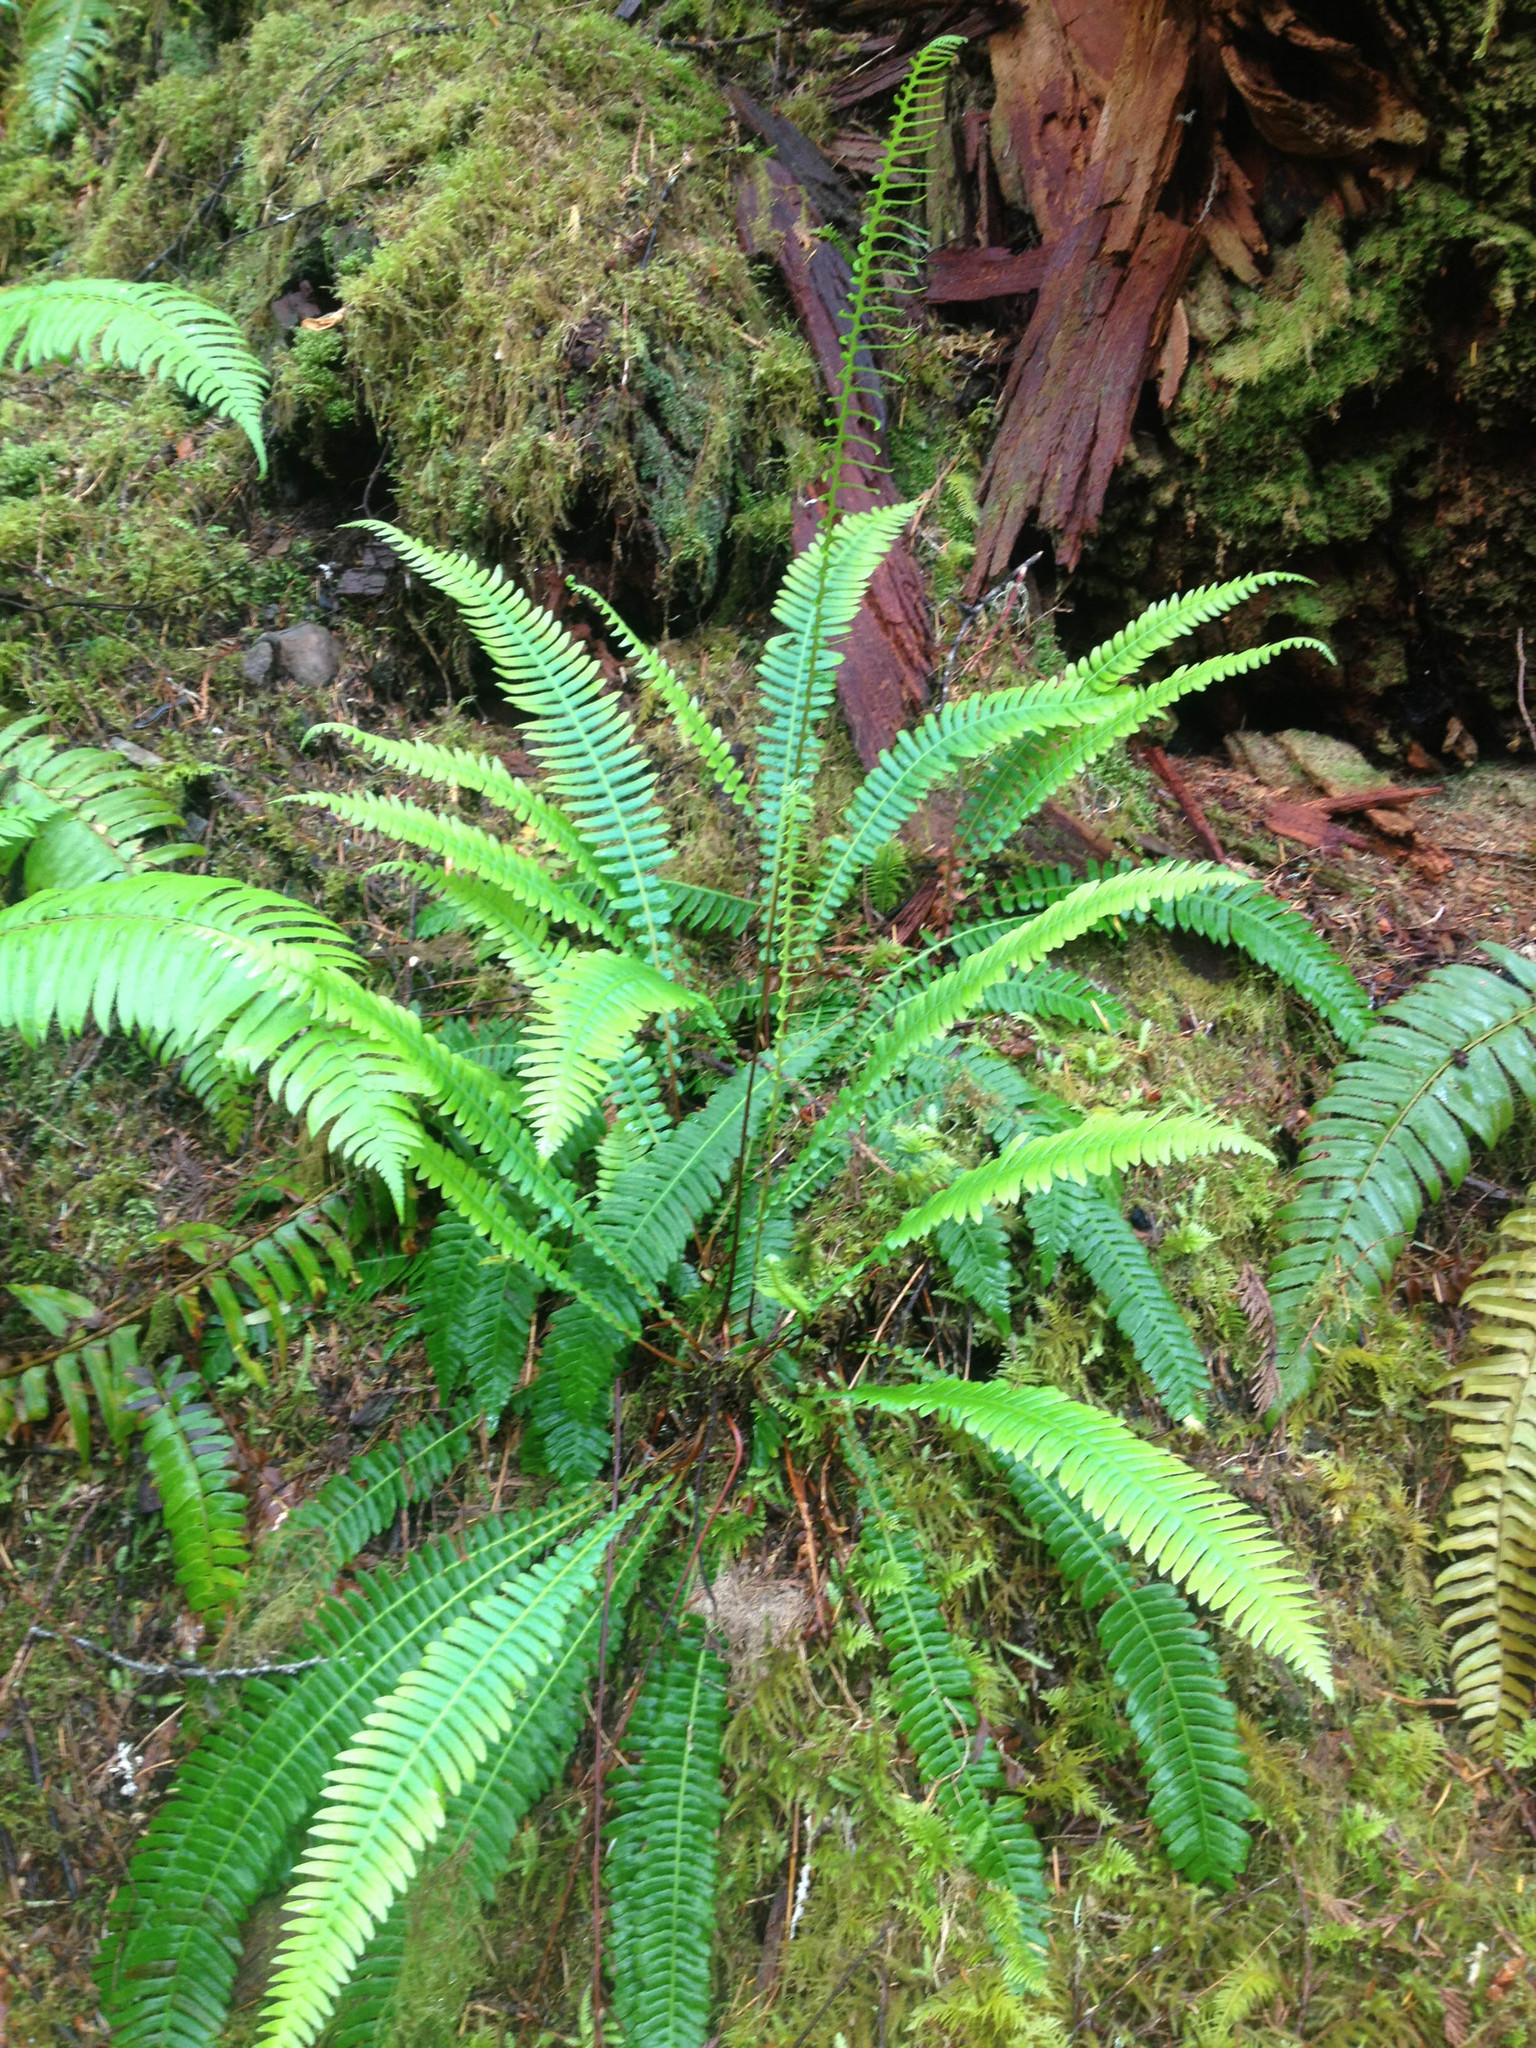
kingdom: Plantae
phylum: Tracheophyta
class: Polypodiopsida
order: Polypodiales
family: Blechnaceae
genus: Struthiopteris
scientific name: Struthiopteris spicant
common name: Deer fern
